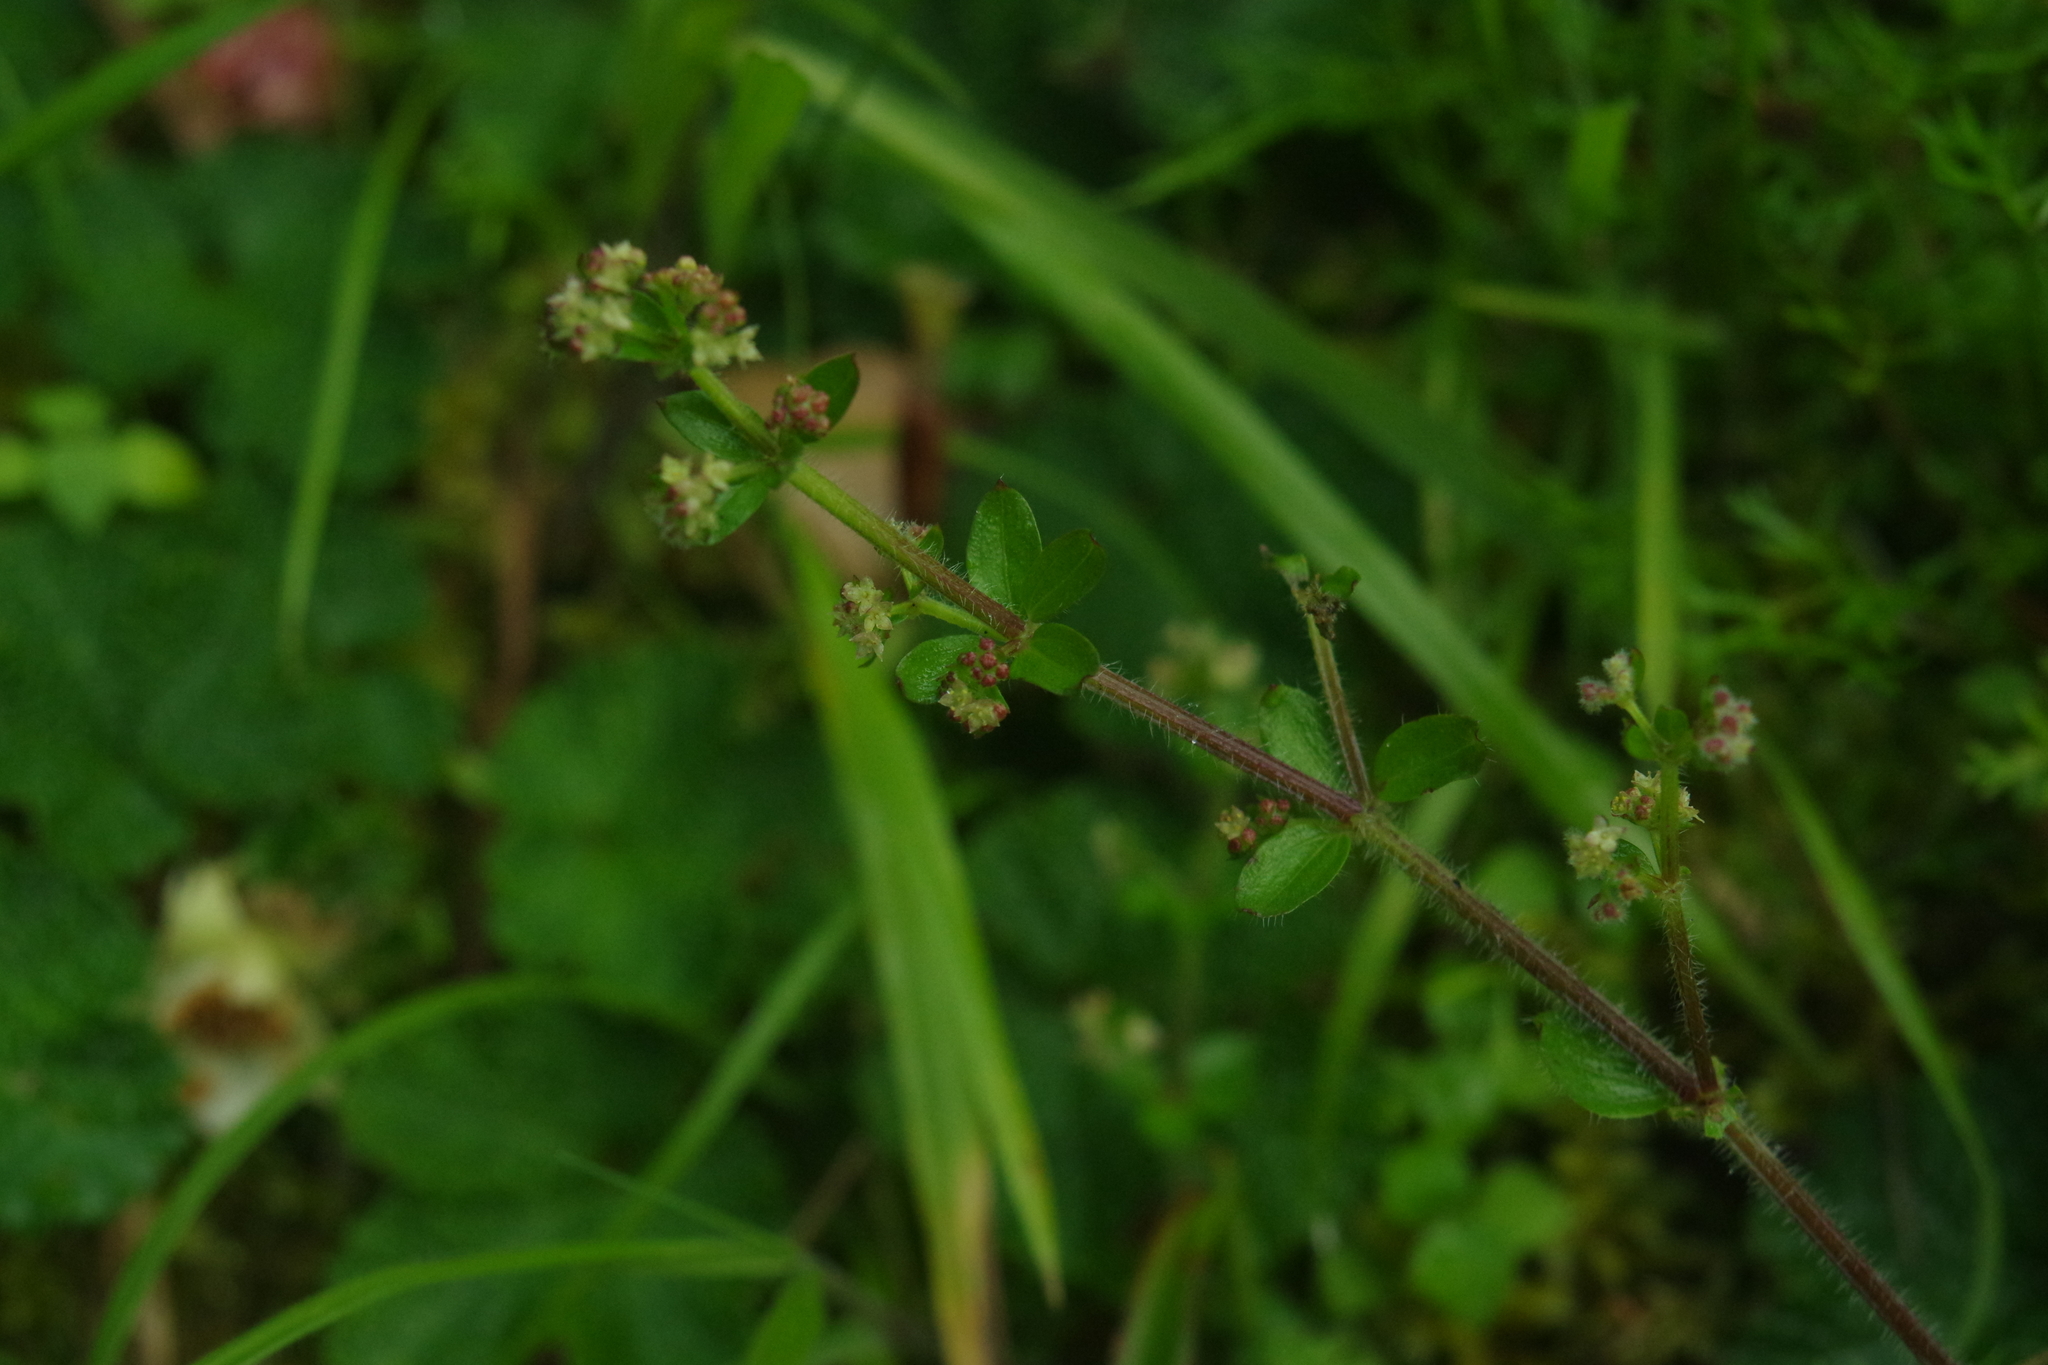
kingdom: Plantae
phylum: Tracheophyta
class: Magnoliopsida
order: Gentianales
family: Rubiaceae
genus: Galium
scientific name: Galium formosense
